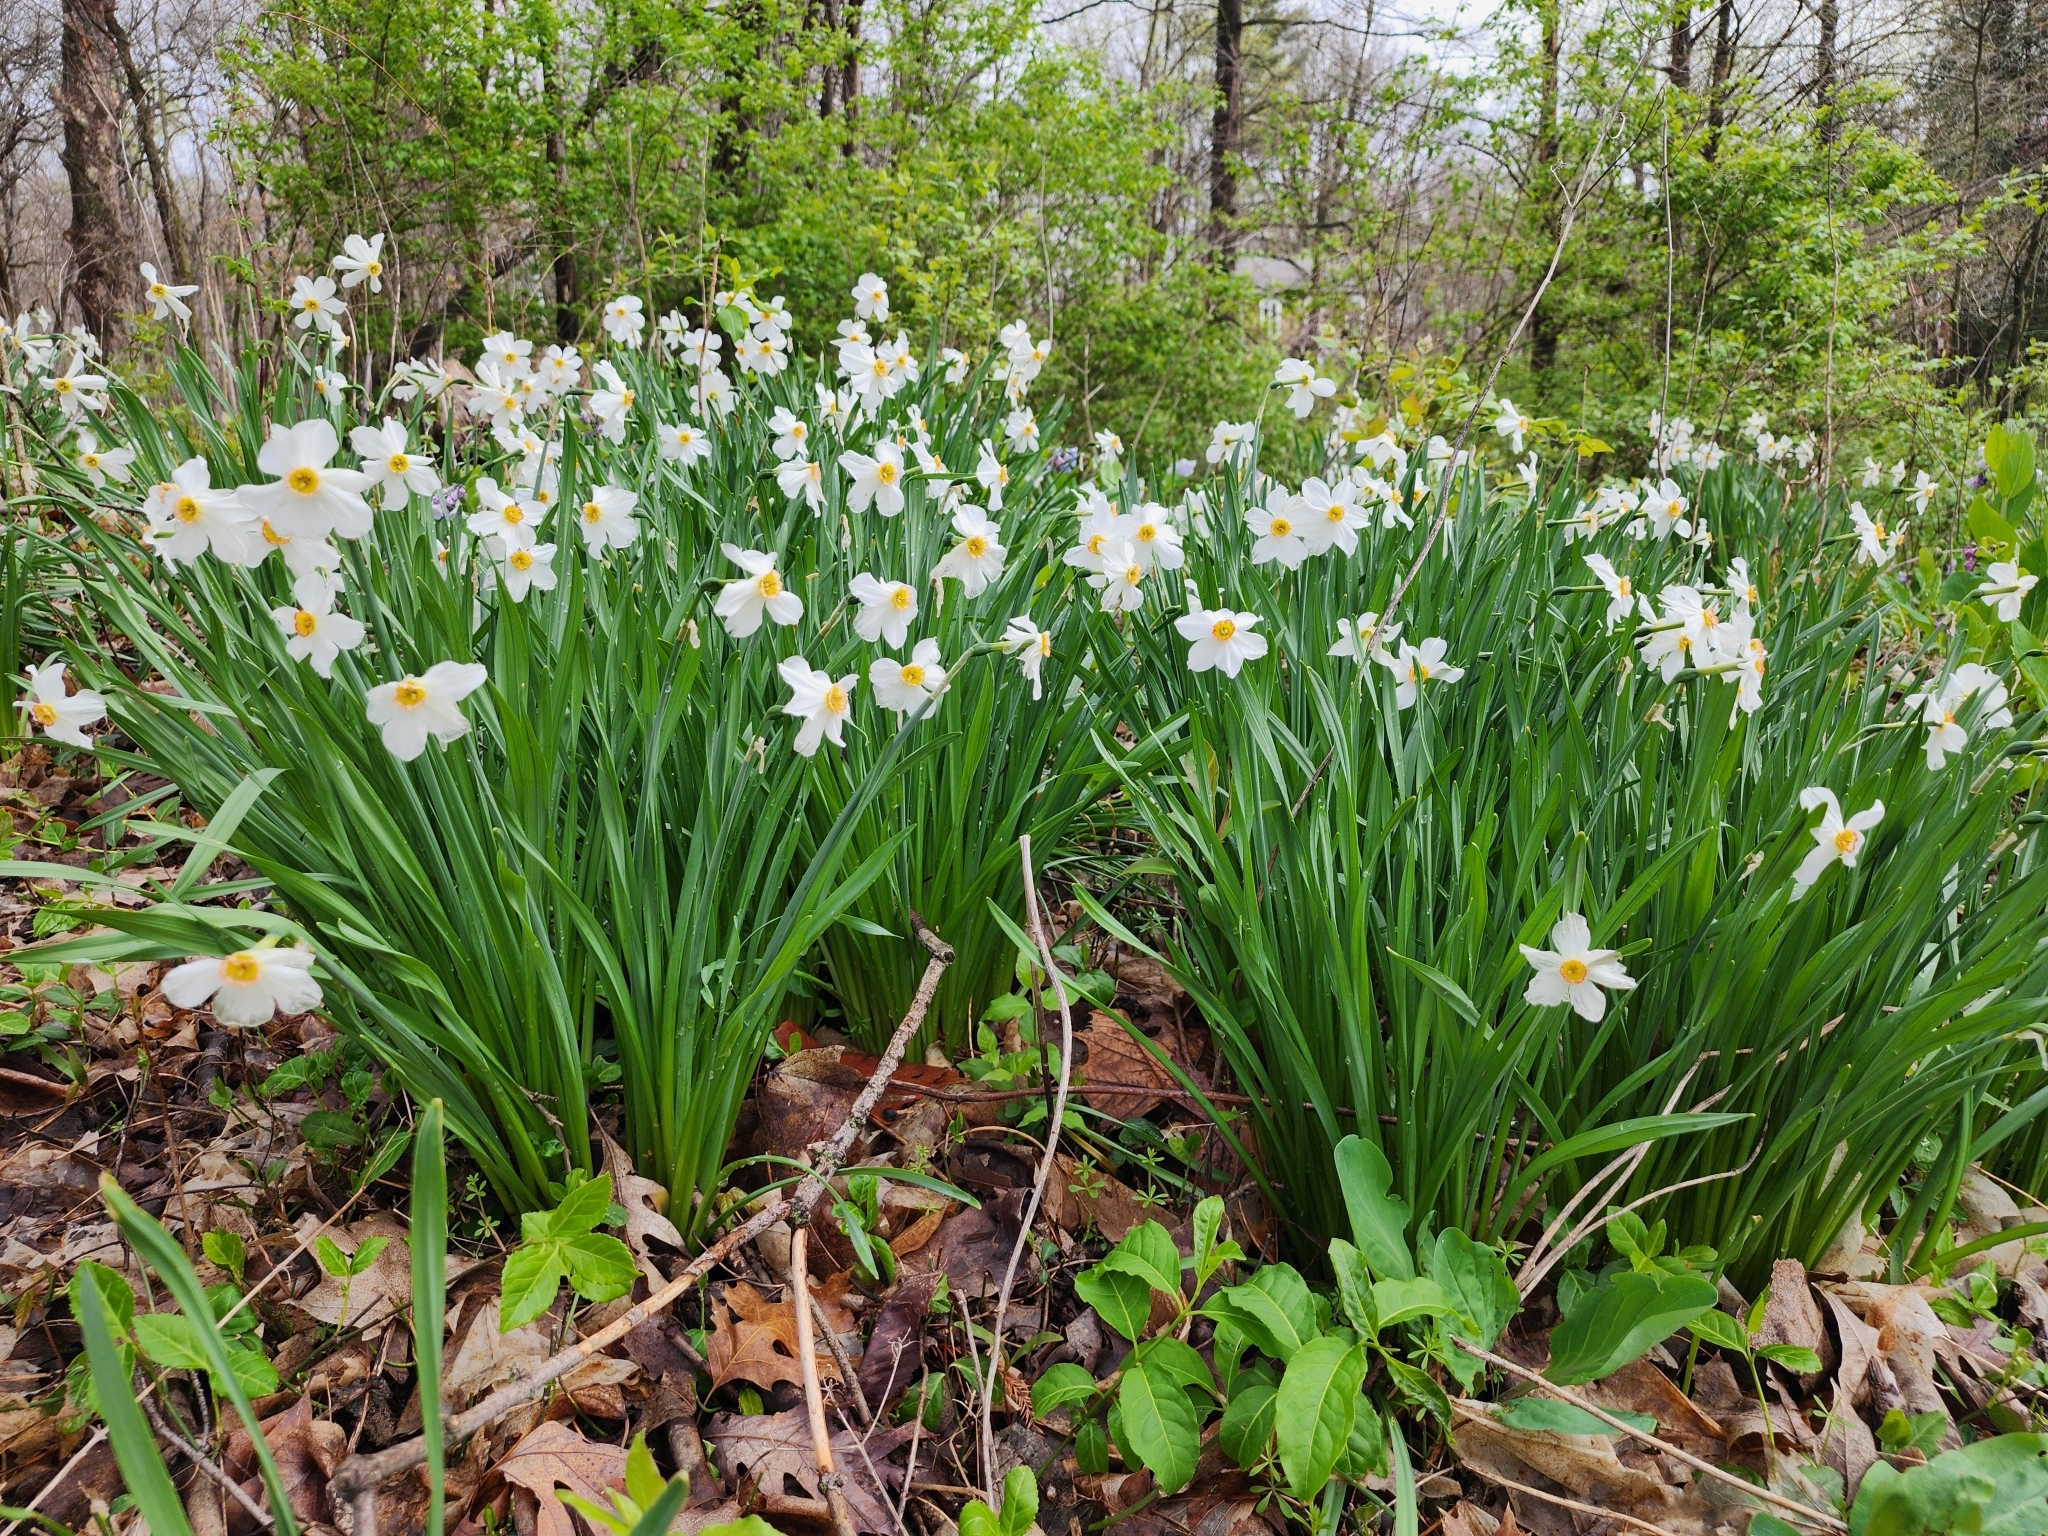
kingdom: Plantae
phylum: Tracheophyta
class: Liliopsida
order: Asparagales
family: Amaryllidaceae
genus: Narcissus
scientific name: Narcissus poeticus
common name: Pheasant's-eye daffodil
